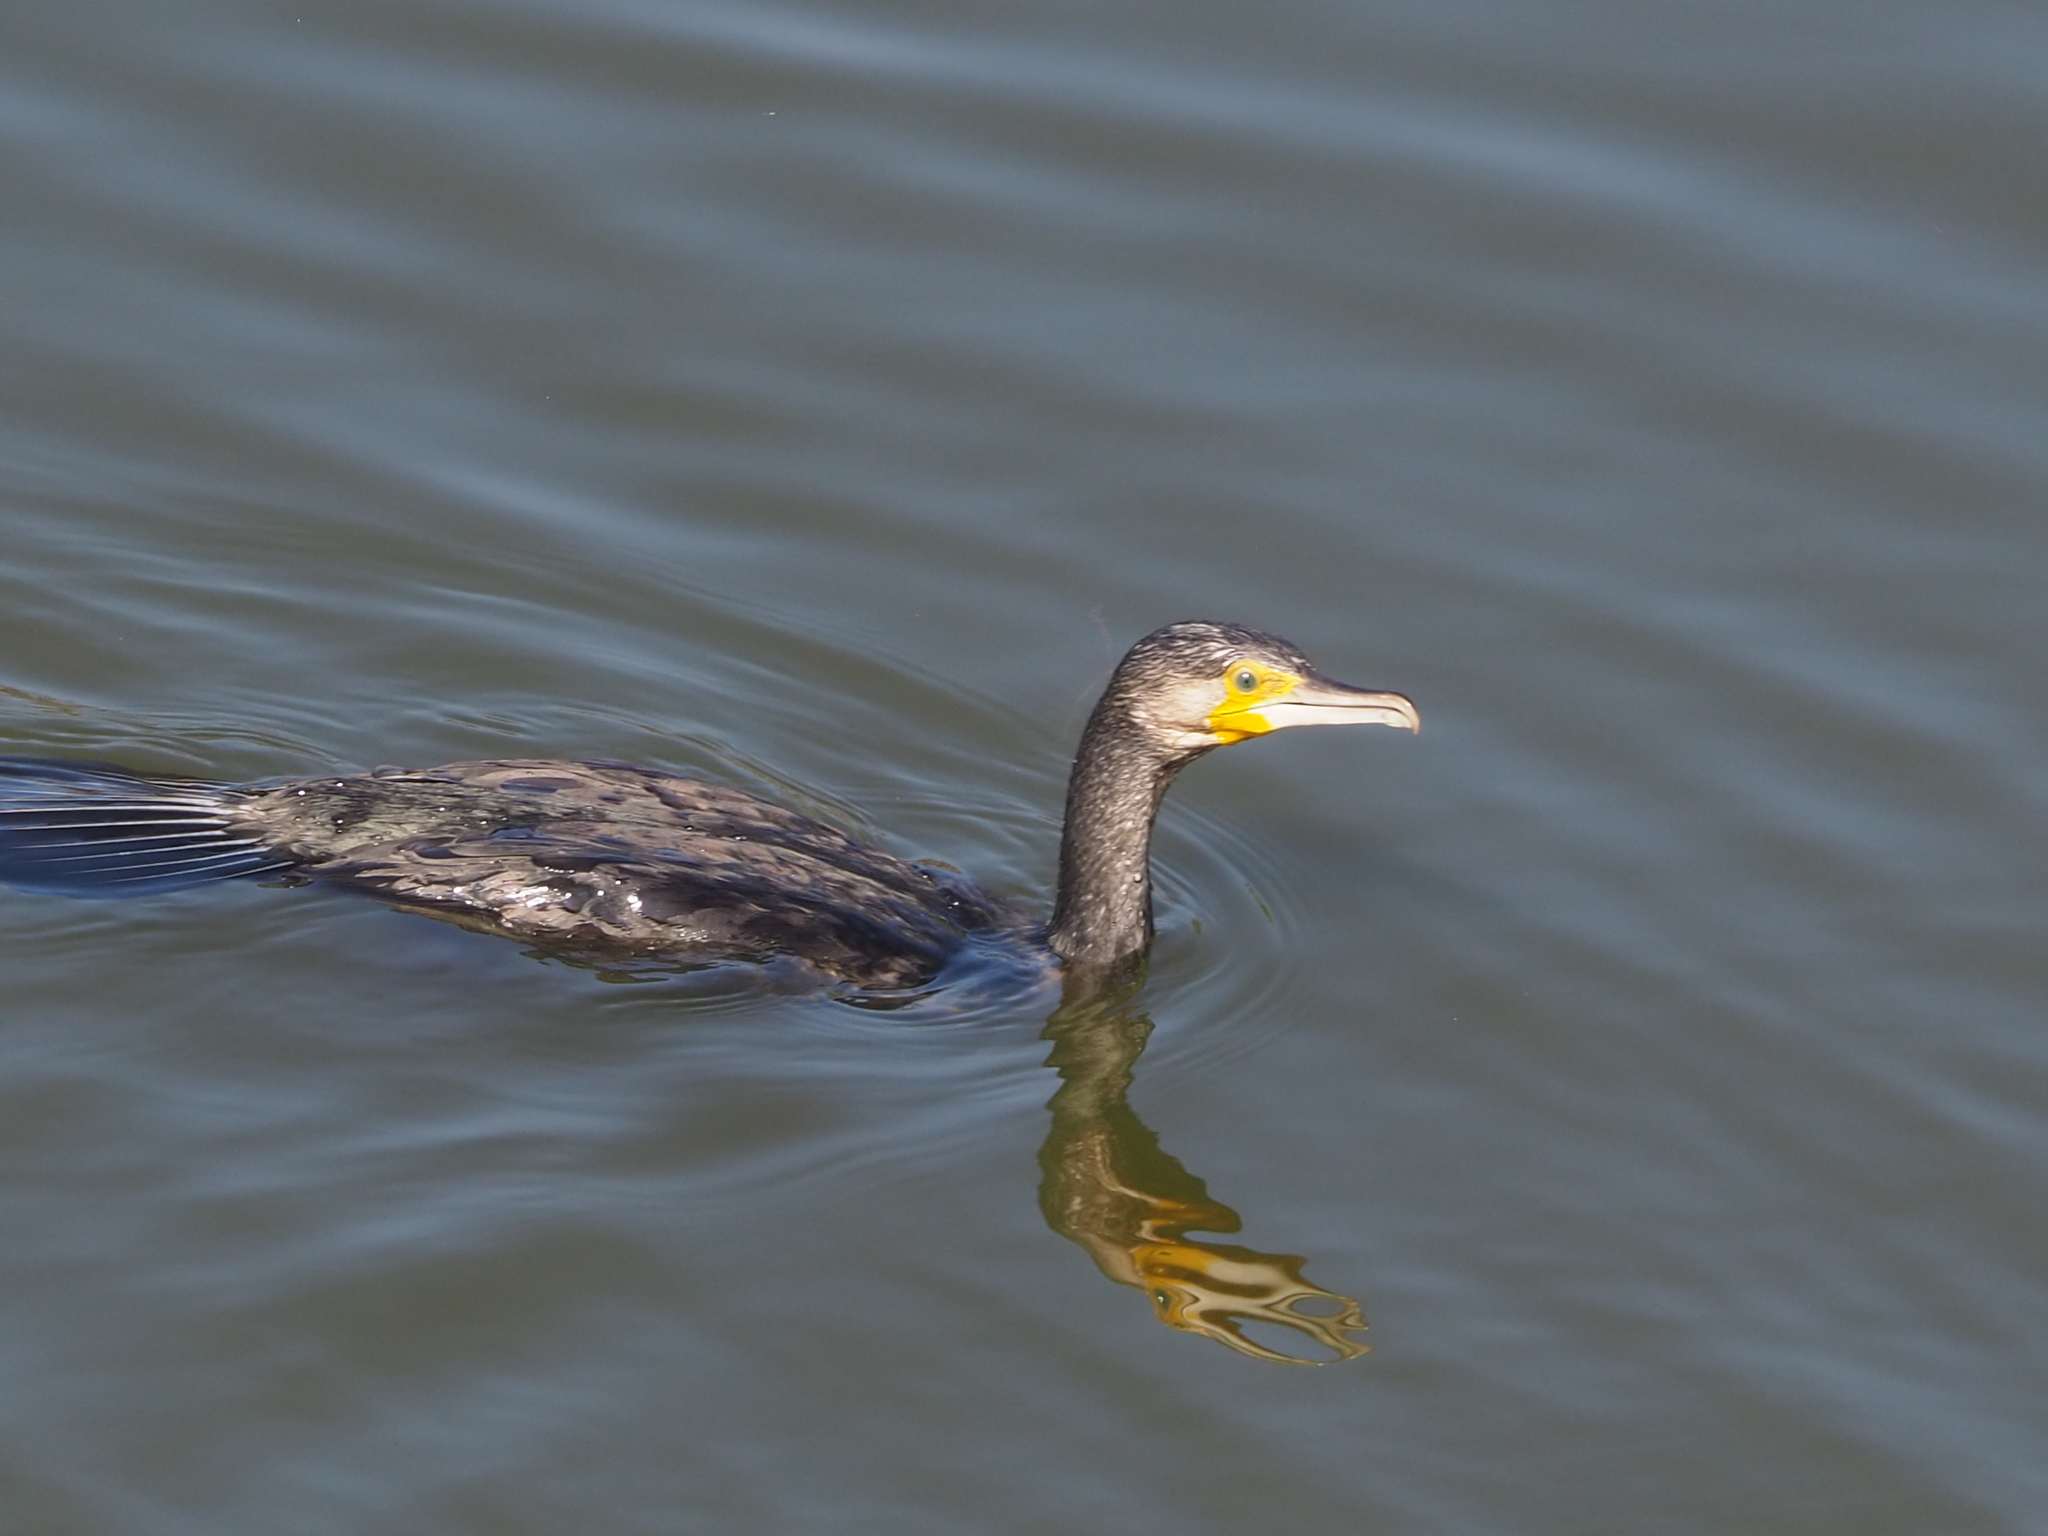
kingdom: Animalia
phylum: Chordata
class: Aves
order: Suliformes
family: Phalacrocoracidae
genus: Phalacrocorax
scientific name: Phalacrocorax carbo
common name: Great cormorant
